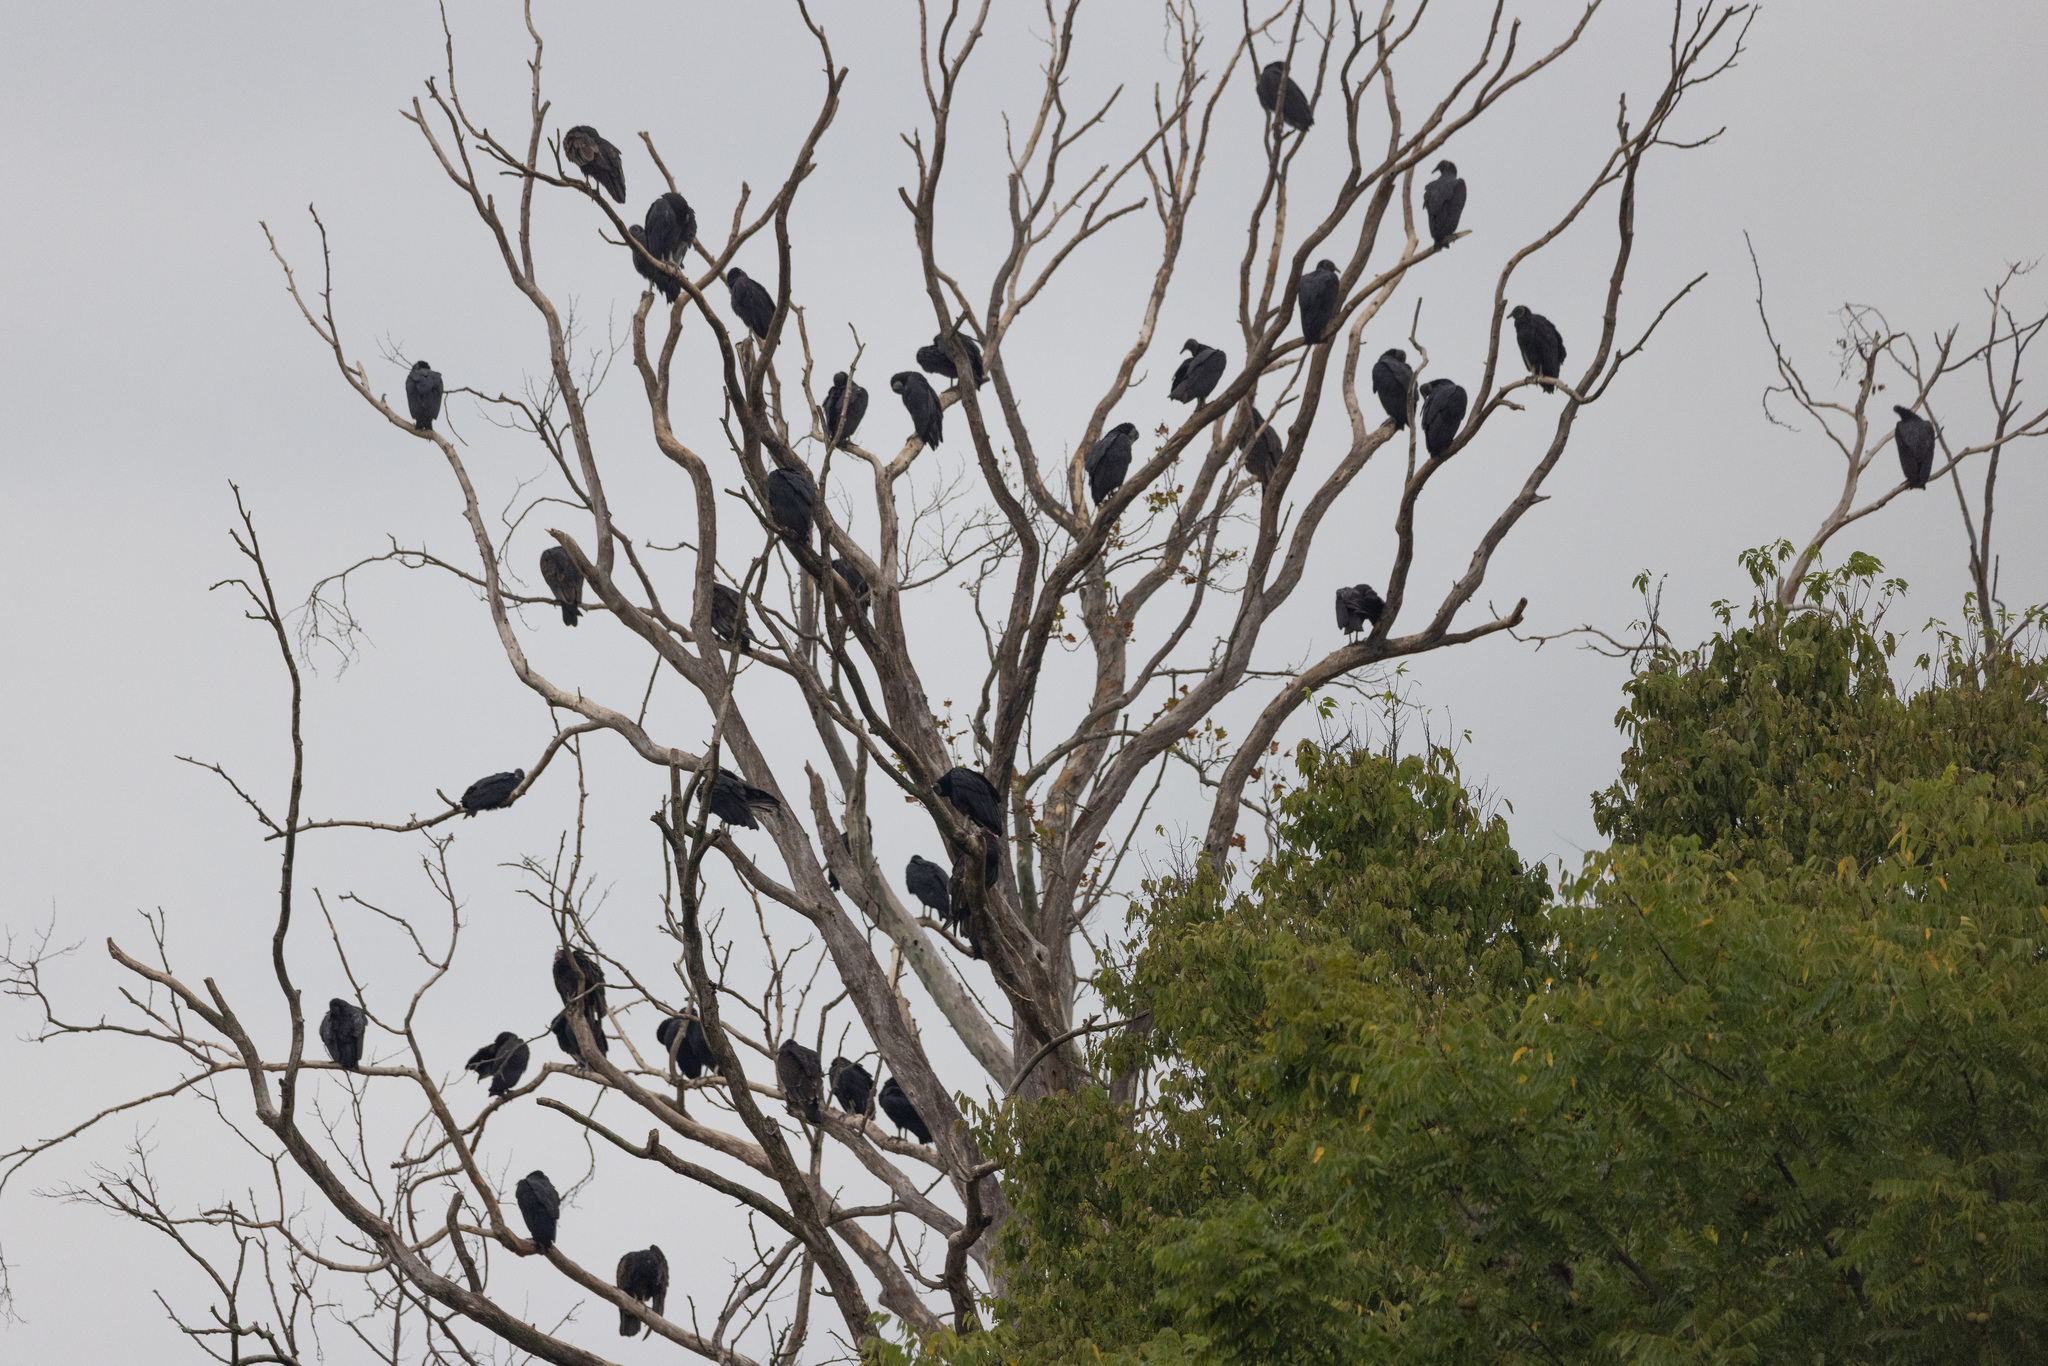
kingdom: Animalia
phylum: Chordata
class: Aves
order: Accipitriformes
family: Cathartidae
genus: Coragyps
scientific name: Coragyps atratus
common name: Black vulture
